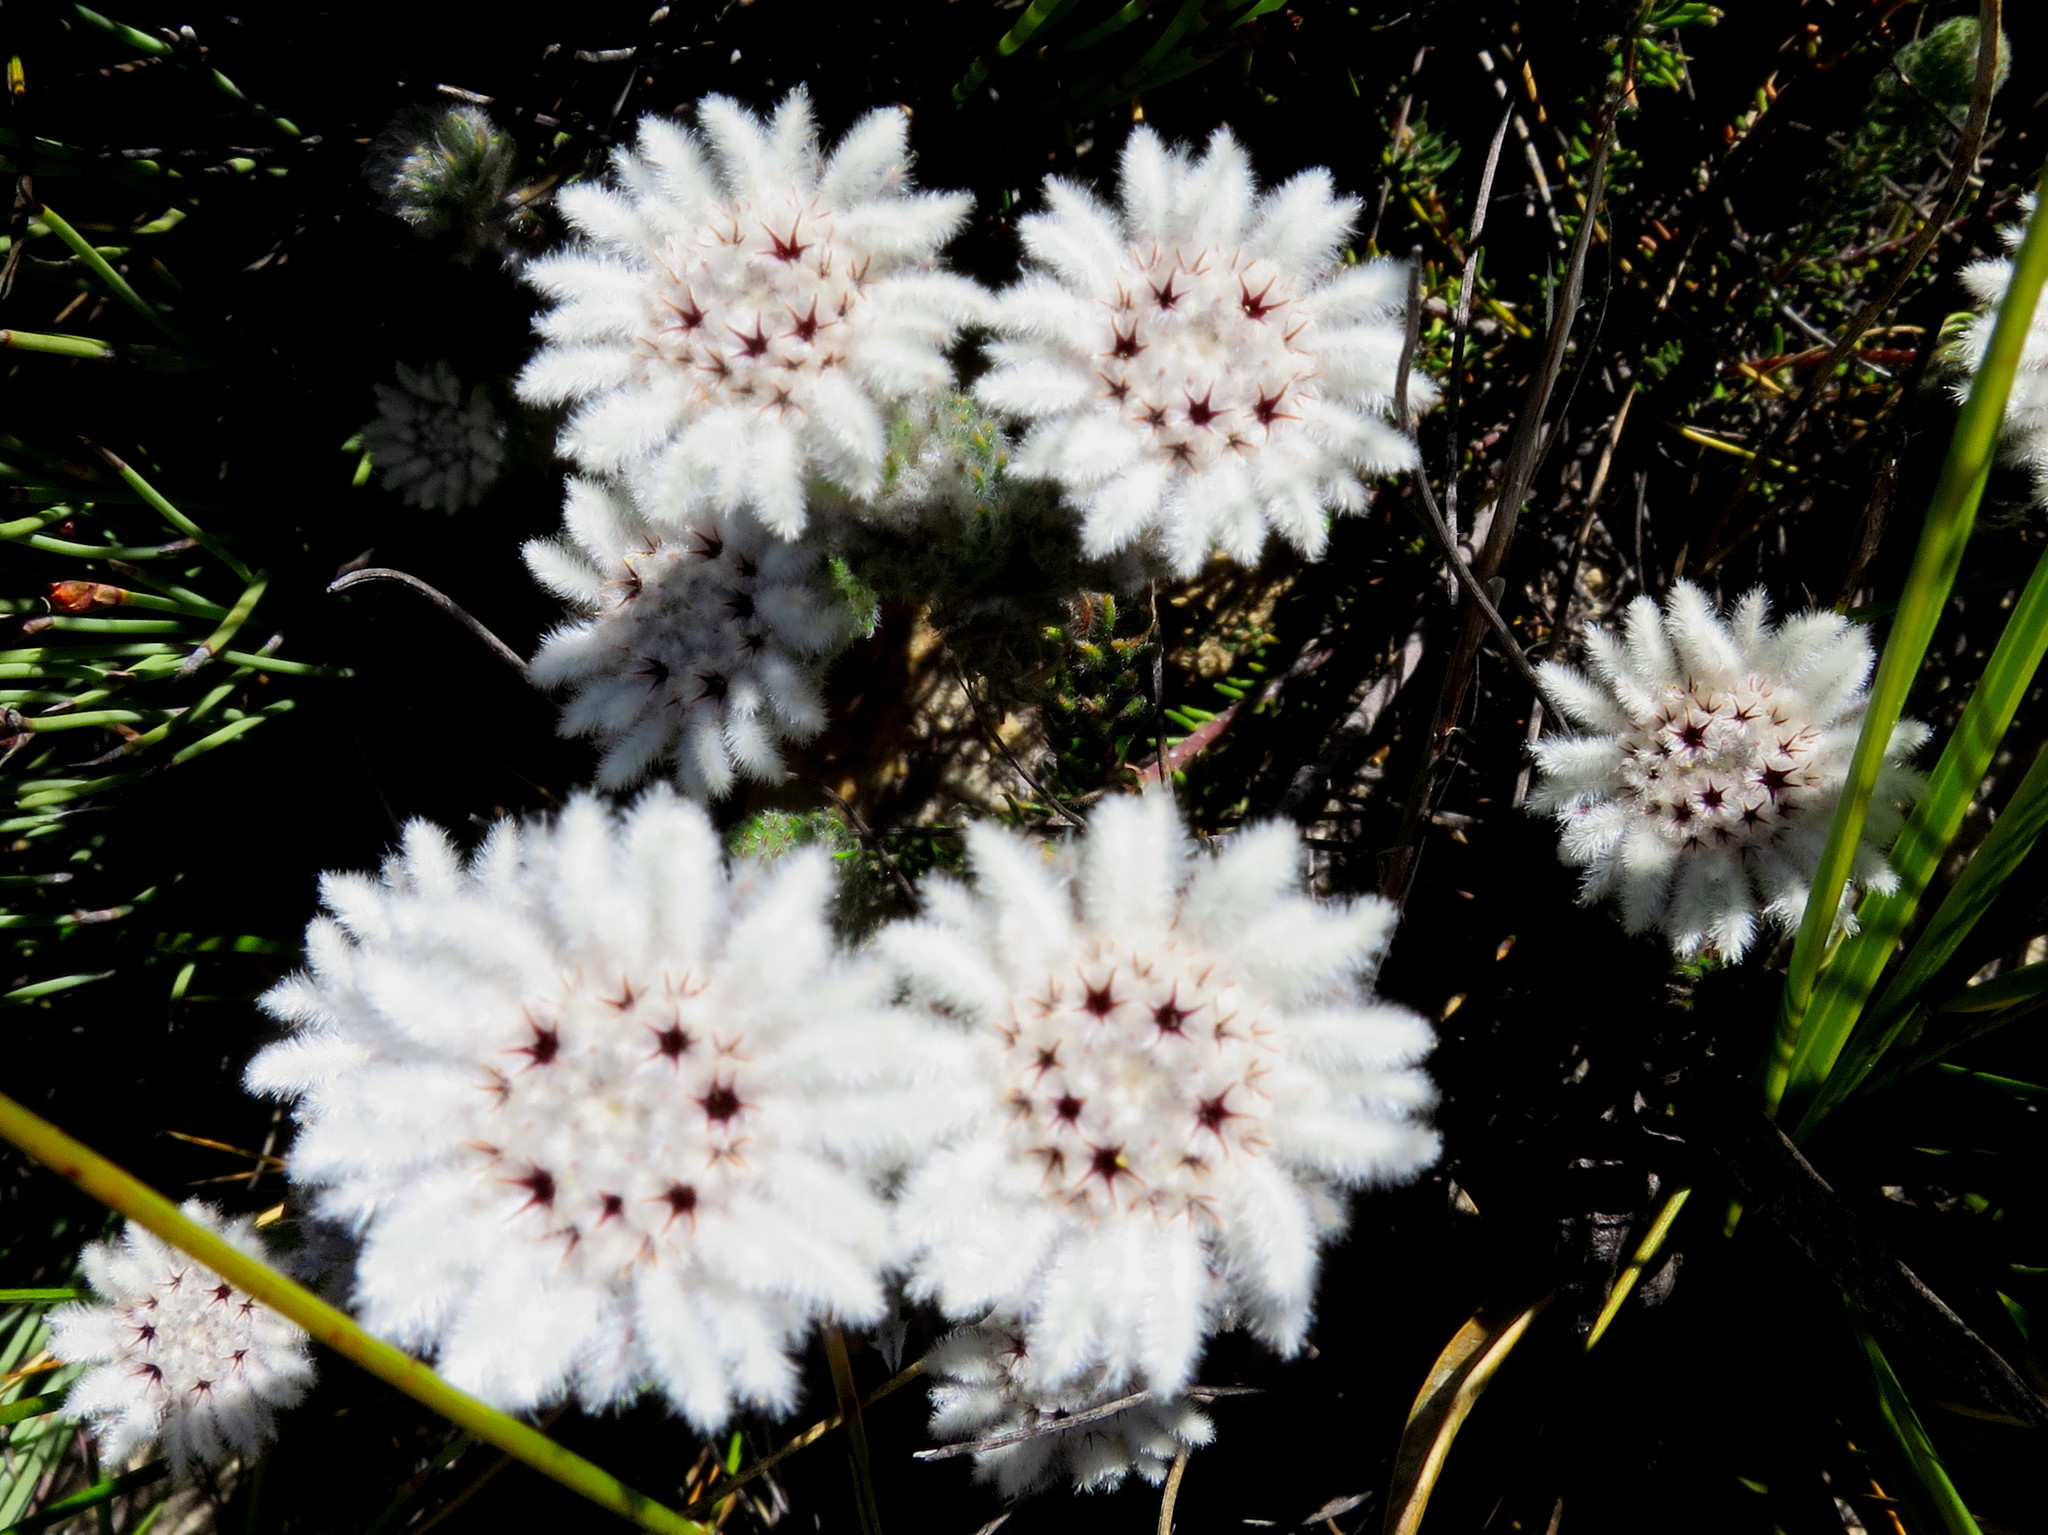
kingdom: Plantae
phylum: Tracheophyta
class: Magnoliopsida
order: Rosales
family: Rhamnaceae
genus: Phylica
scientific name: Phylica meyeri
